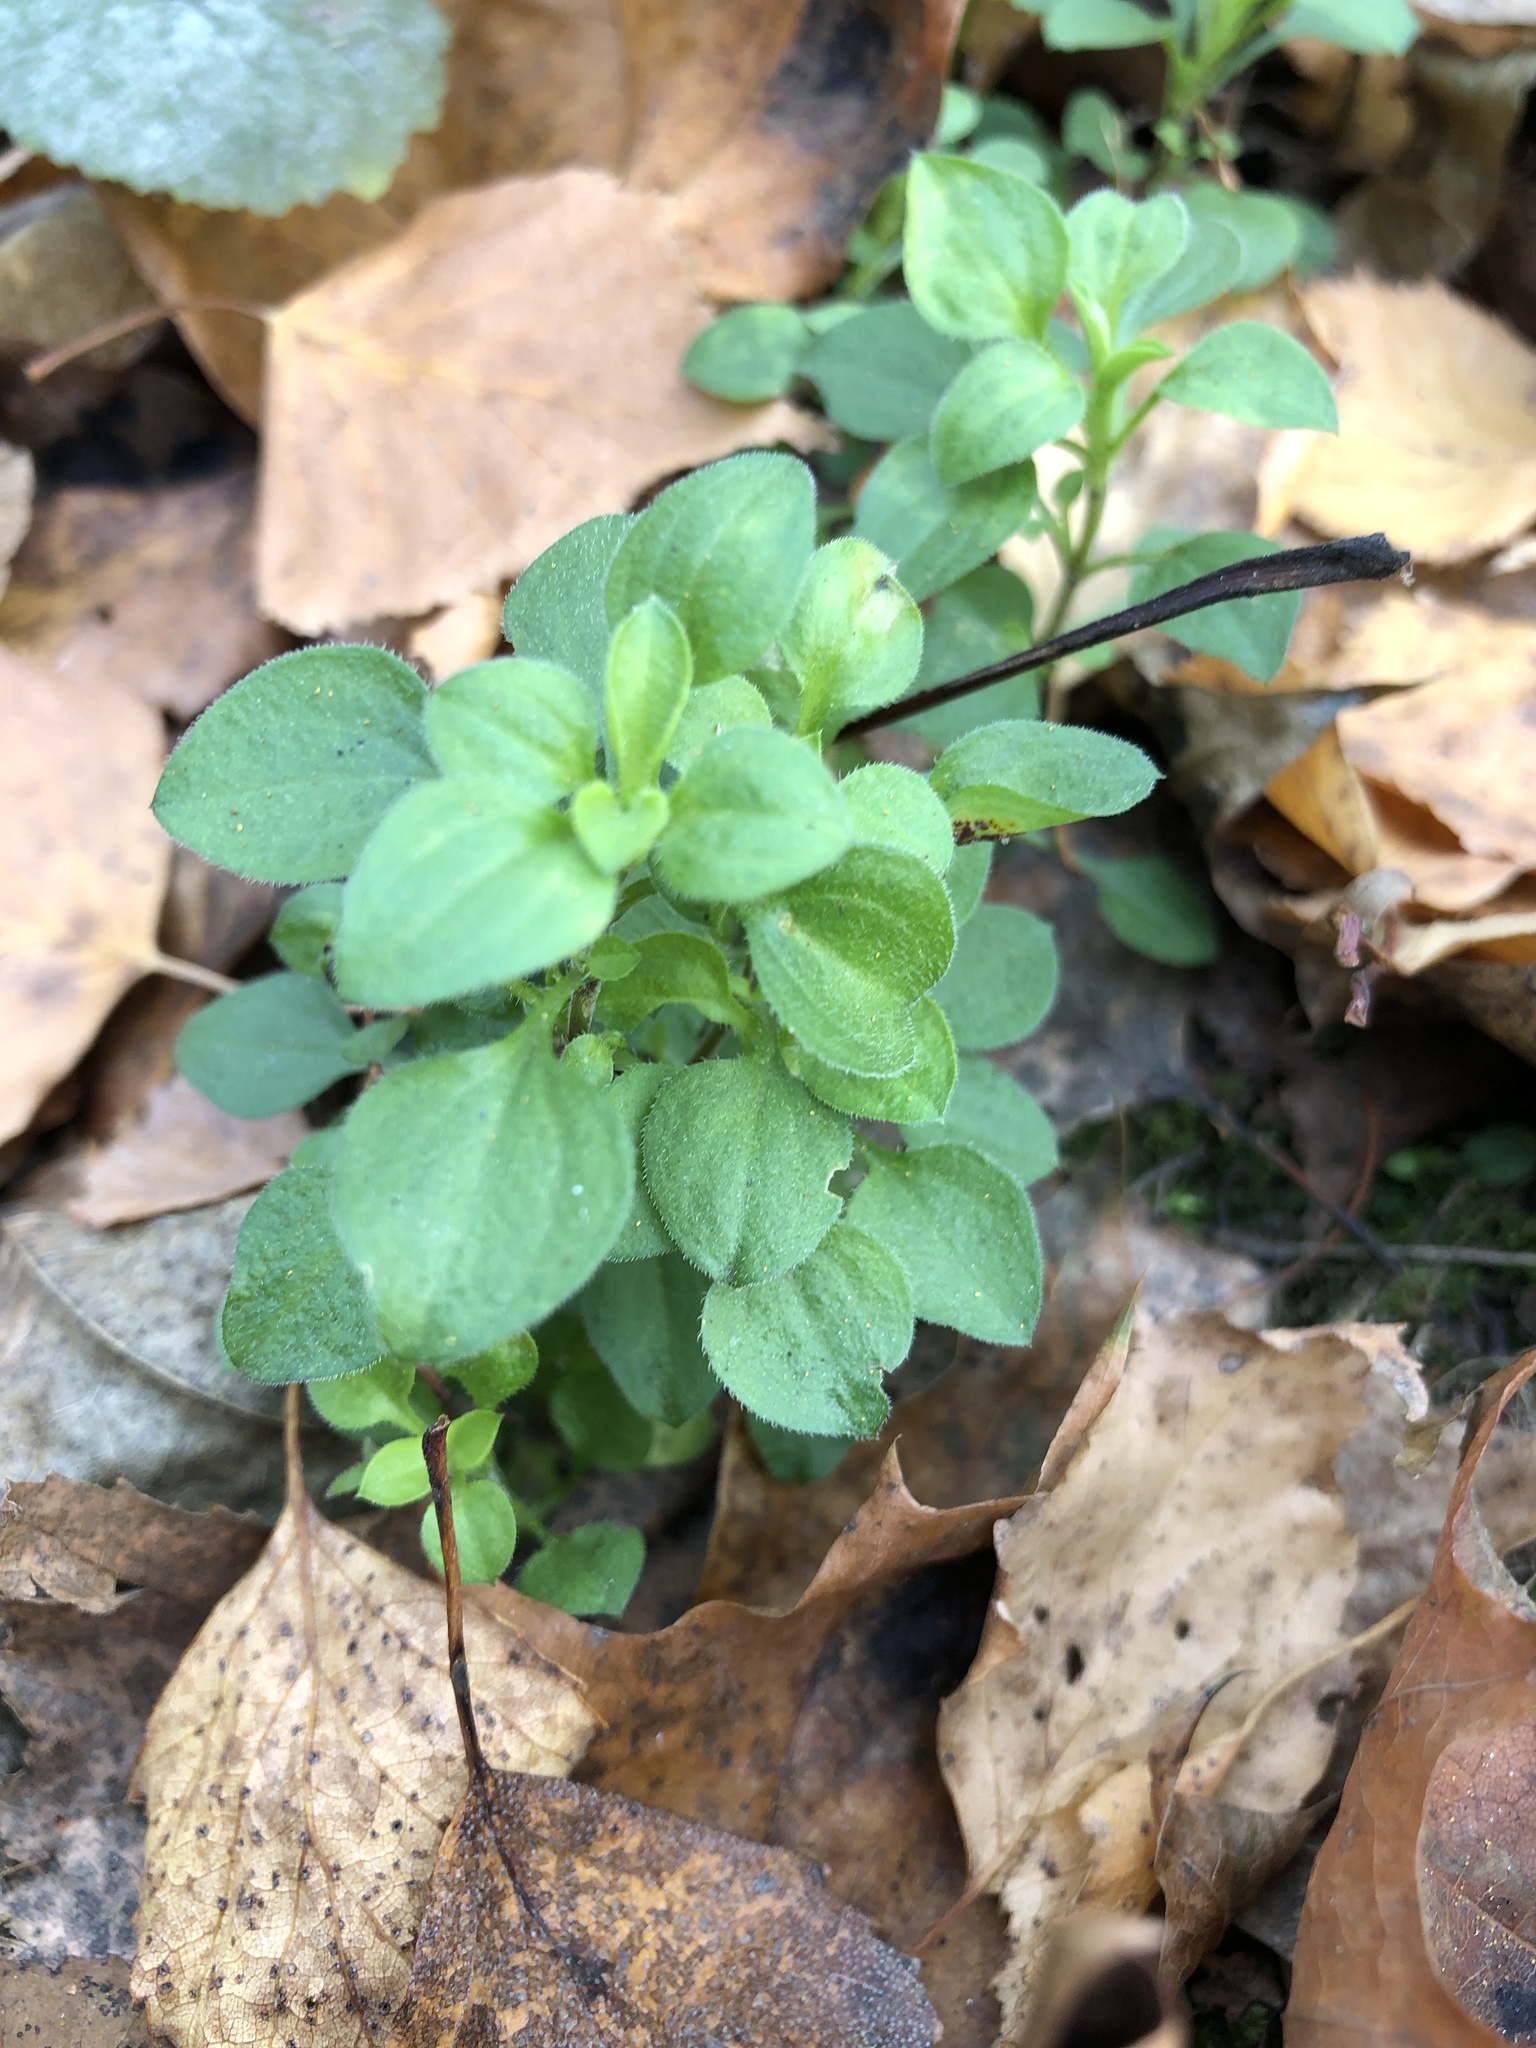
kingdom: Plantae
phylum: Tracheophyta
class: Magnoliopsida
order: Caryophyllales
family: Caryophyllaceae
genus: Moehringia
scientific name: Moehringia trinervia
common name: Three-nerved sandwort
